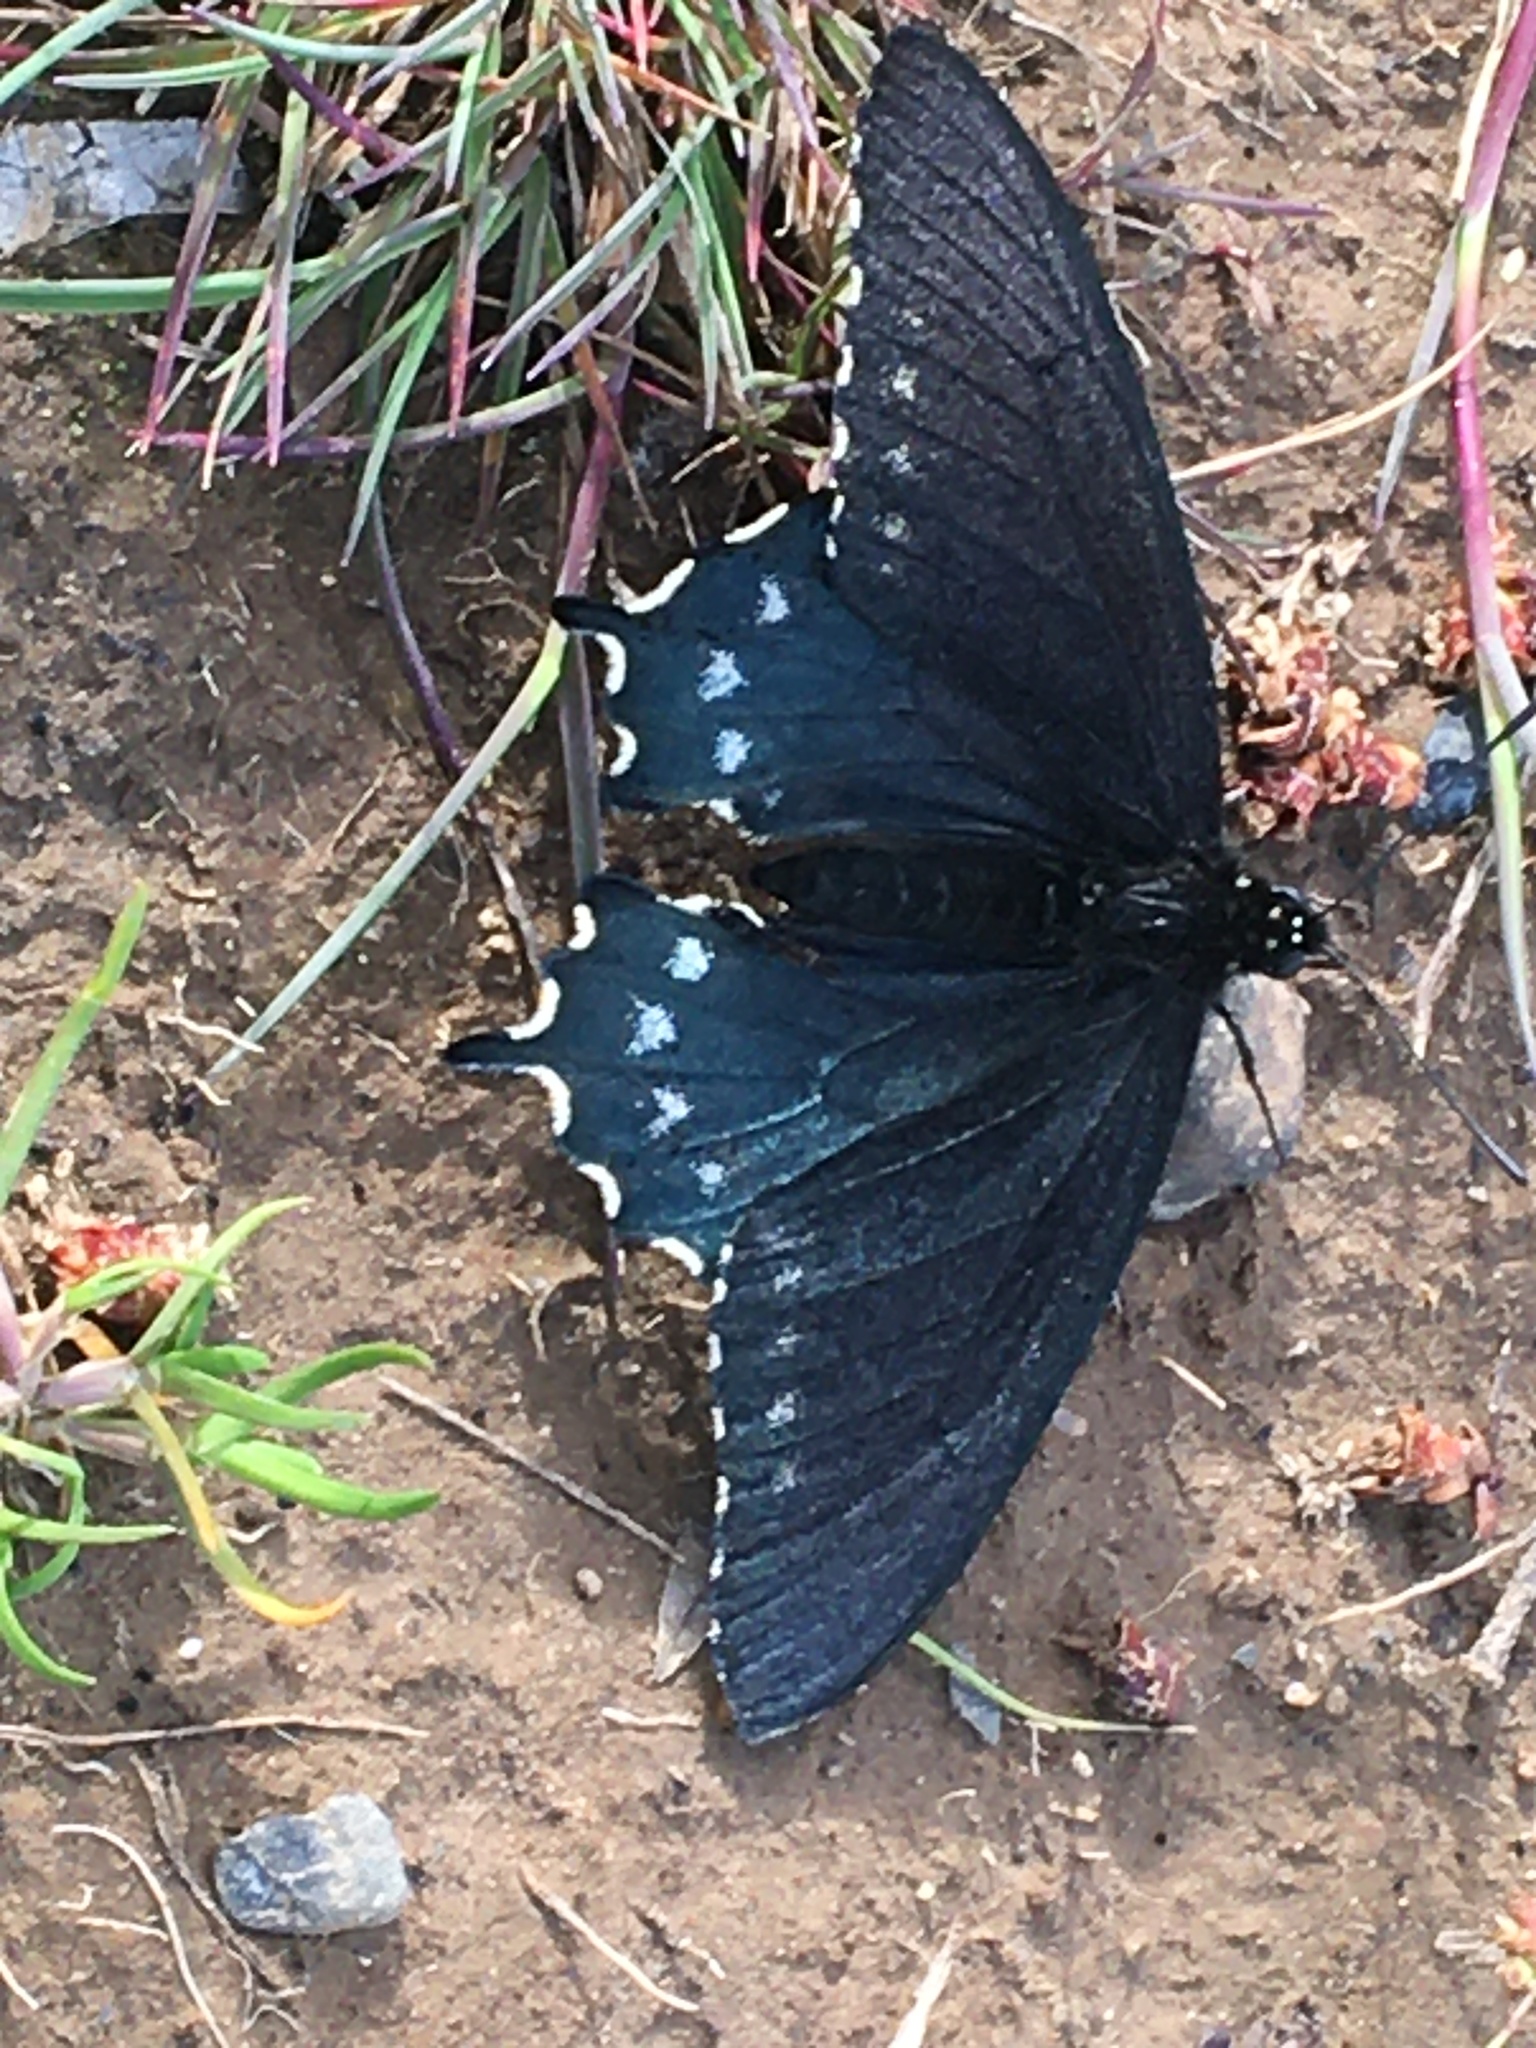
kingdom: Animalia
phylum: Arthropoda
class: Insecta
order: Lepidoptera
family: Papilionidae
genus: Battus
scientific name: Battus philenor
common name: Pipevine swallowtail
